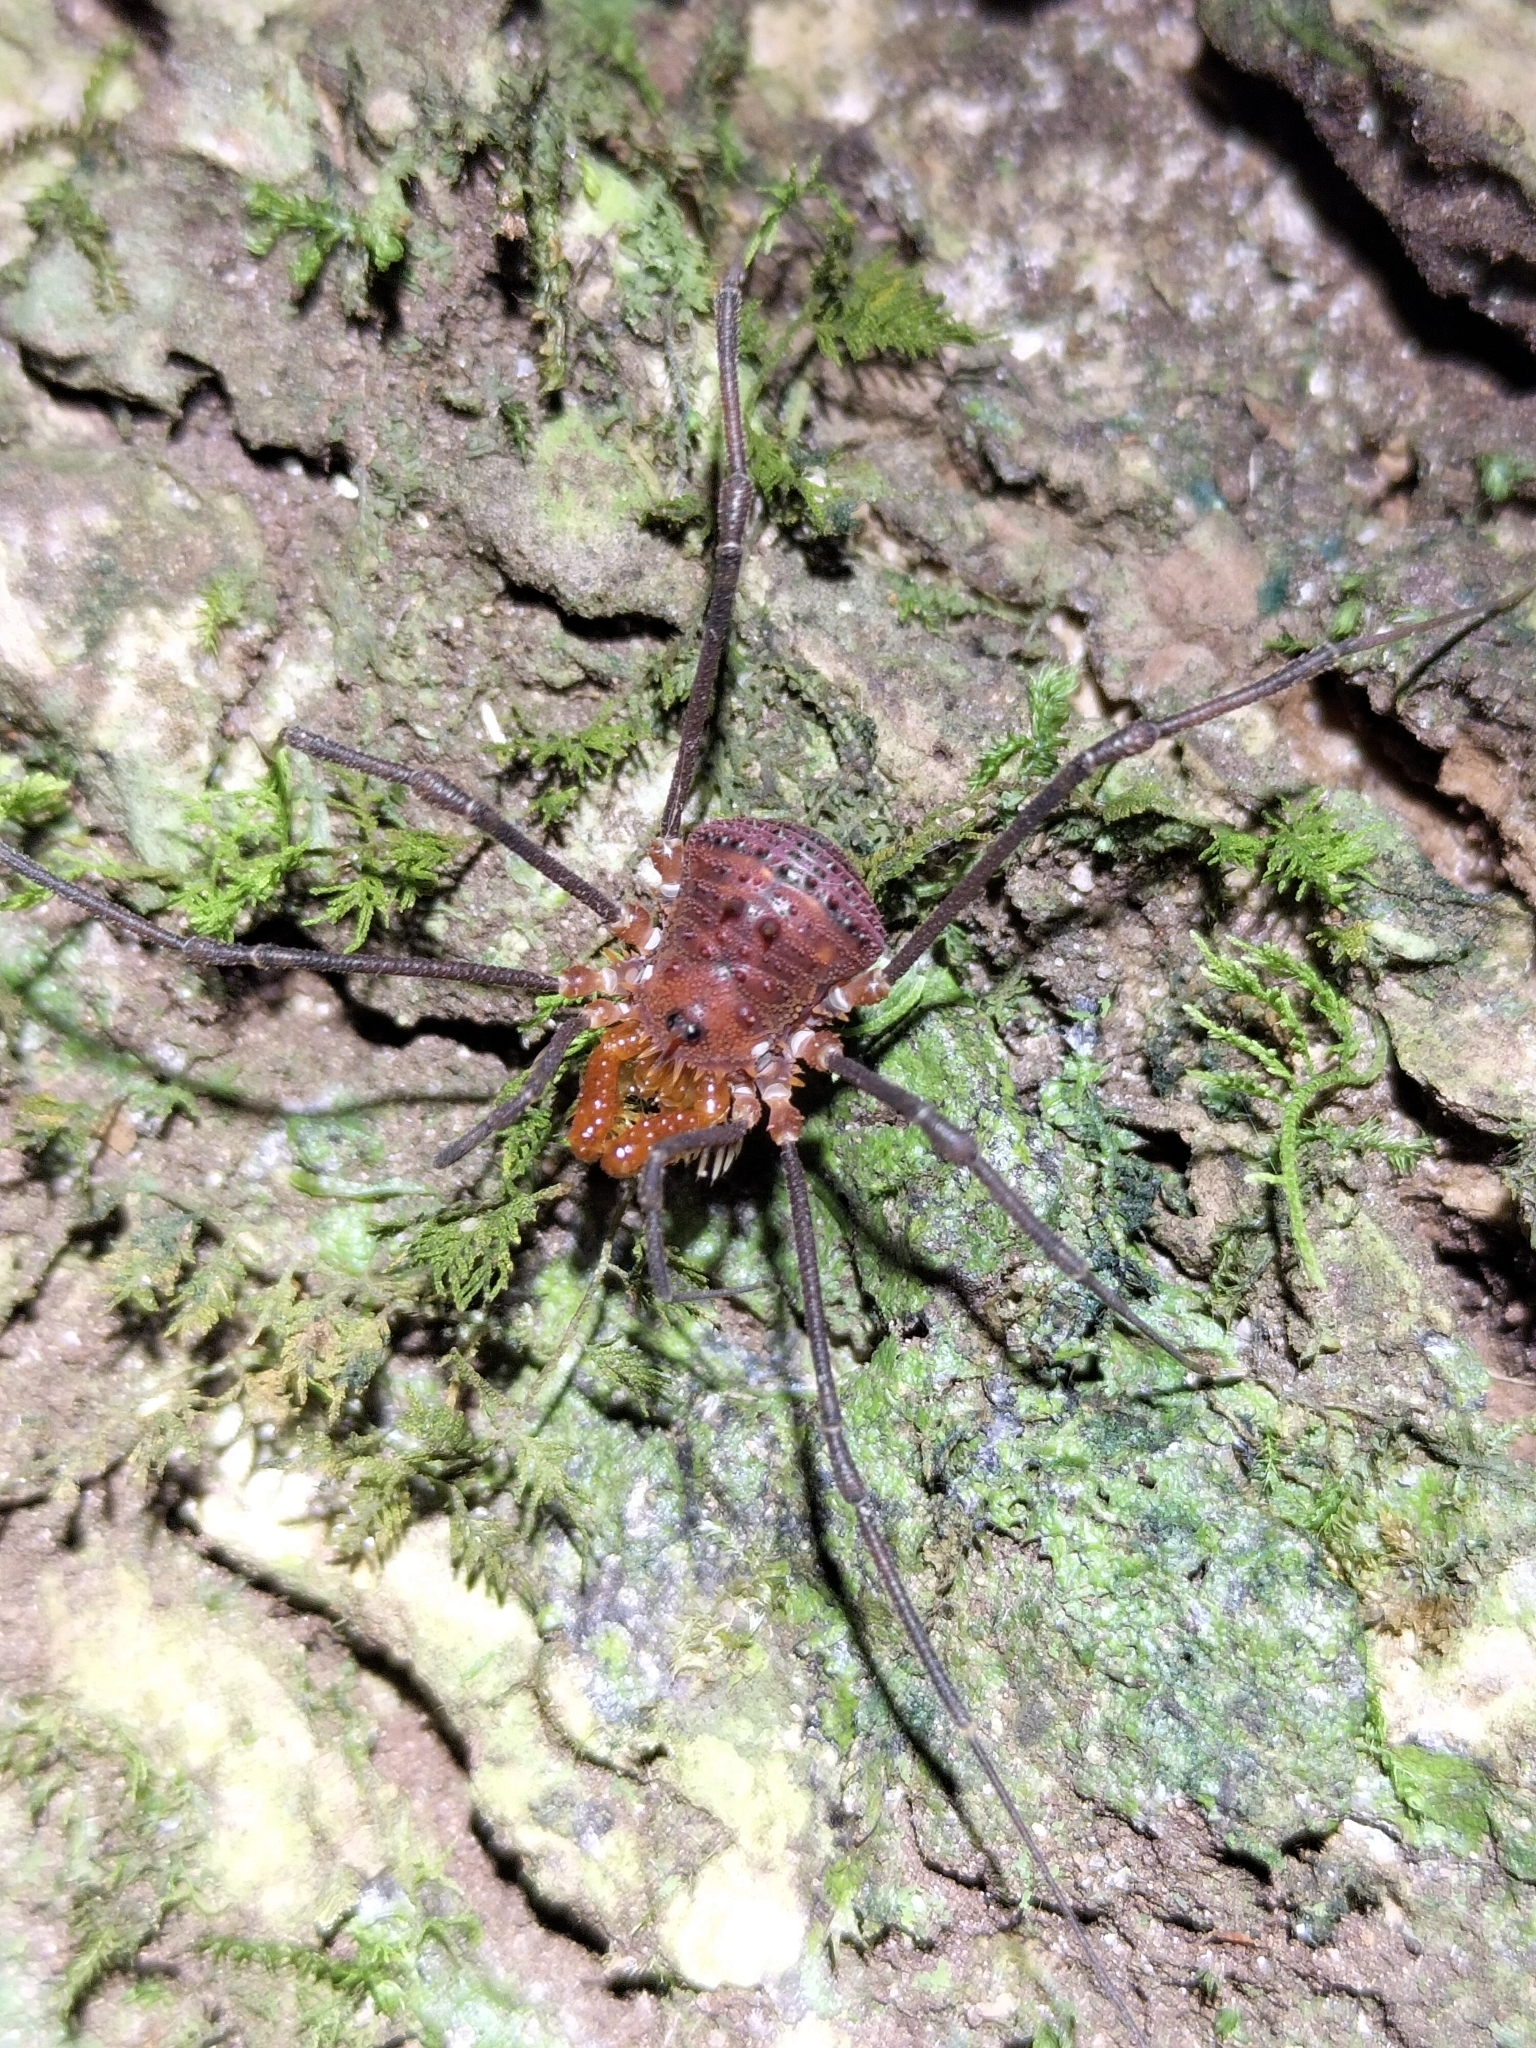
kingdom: Animalia
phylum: Arthropoda
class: Arachnida
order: Opiliones
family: Triaenonychidae
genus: Heteronuncia
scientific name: Heteronuncia robusta
